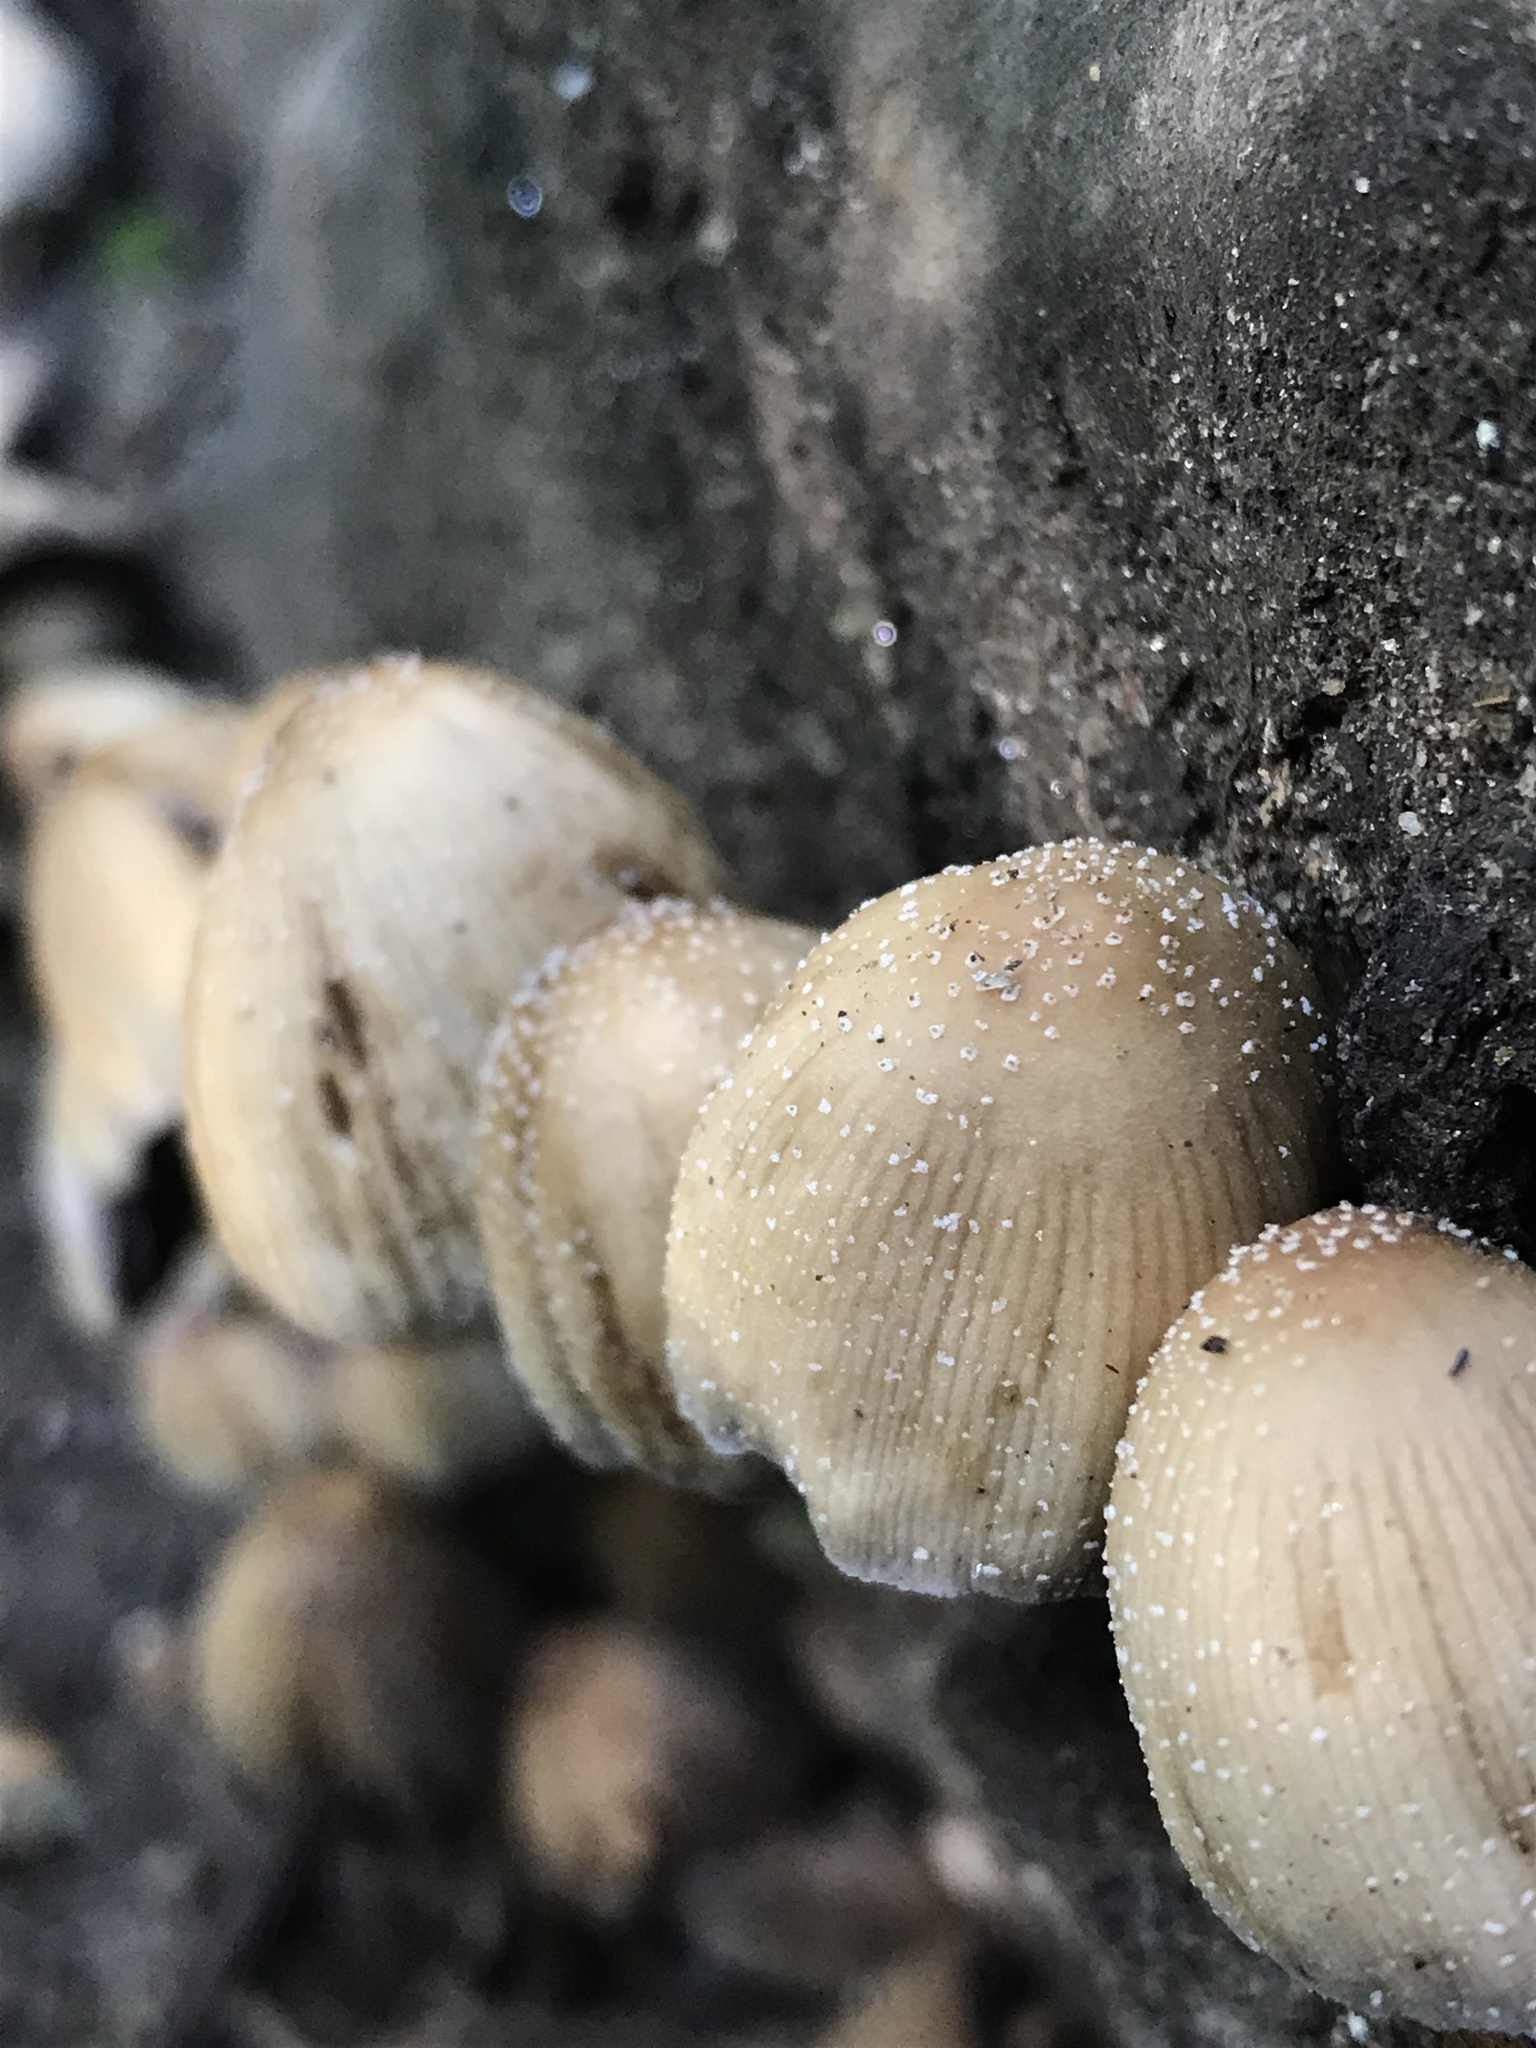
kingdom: Fungi
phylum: Basidiomycota
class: Agaricomycetes
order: Agaricales
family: Psathyrellaceae
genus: Coprinellus
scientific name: Coprinellus micaceus
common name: Glistening ink-cap
